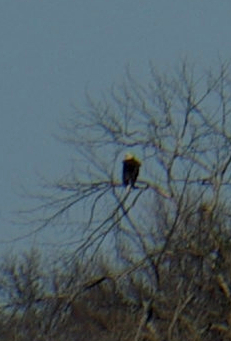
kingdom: Animalia
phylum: Chordata
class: Aves
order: Accipitriformes
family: Accipitridae
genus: Haliaeetus
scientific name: Haliaeetus leucocephalus
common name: Bald eagle
